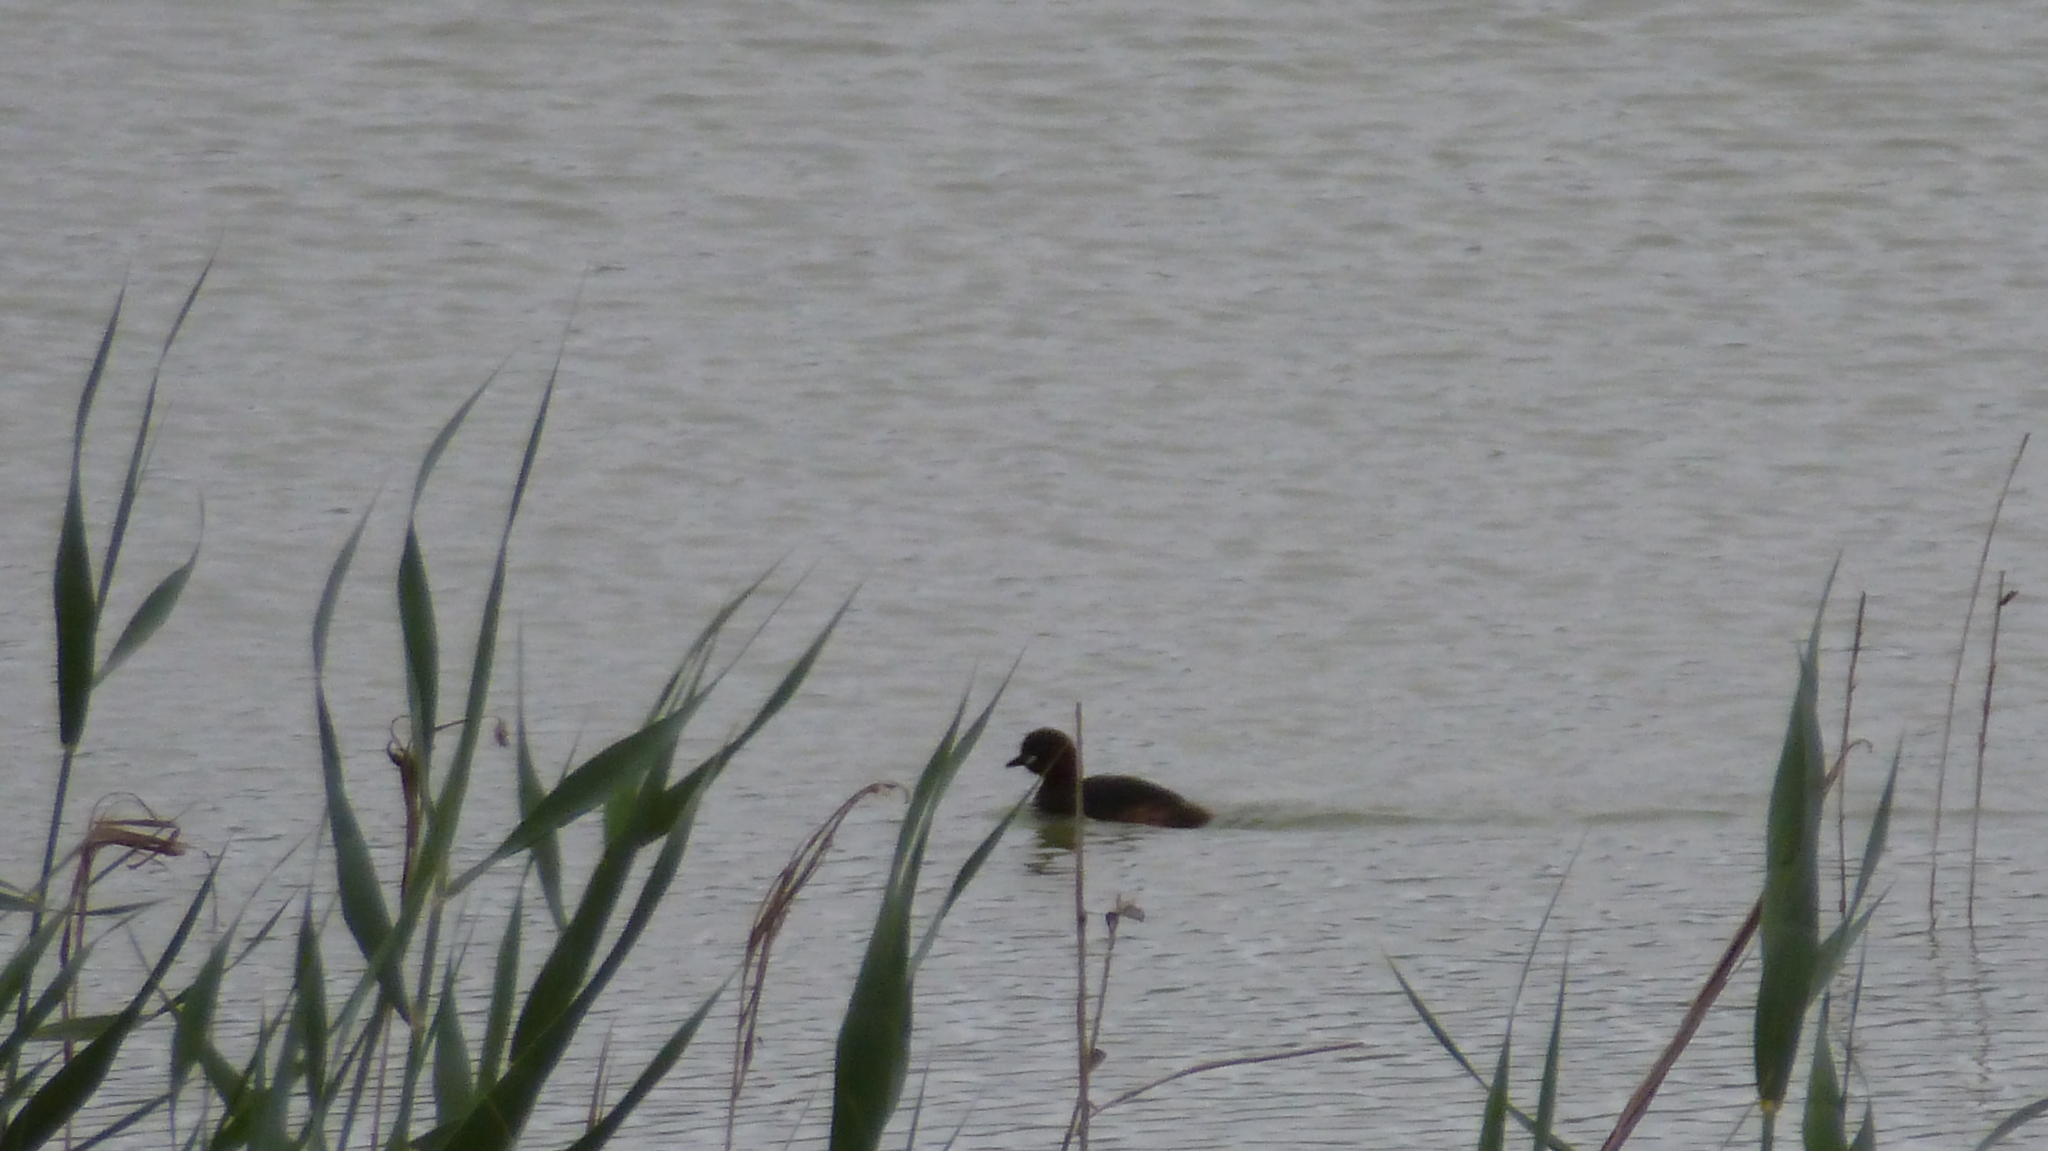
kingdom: Animalia
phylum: Chordata
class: Aves
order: Podicipediformes
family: Podicipedidae
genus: Tachybaptus
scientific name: Tachybaptus ruficollis
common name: Little grebe
